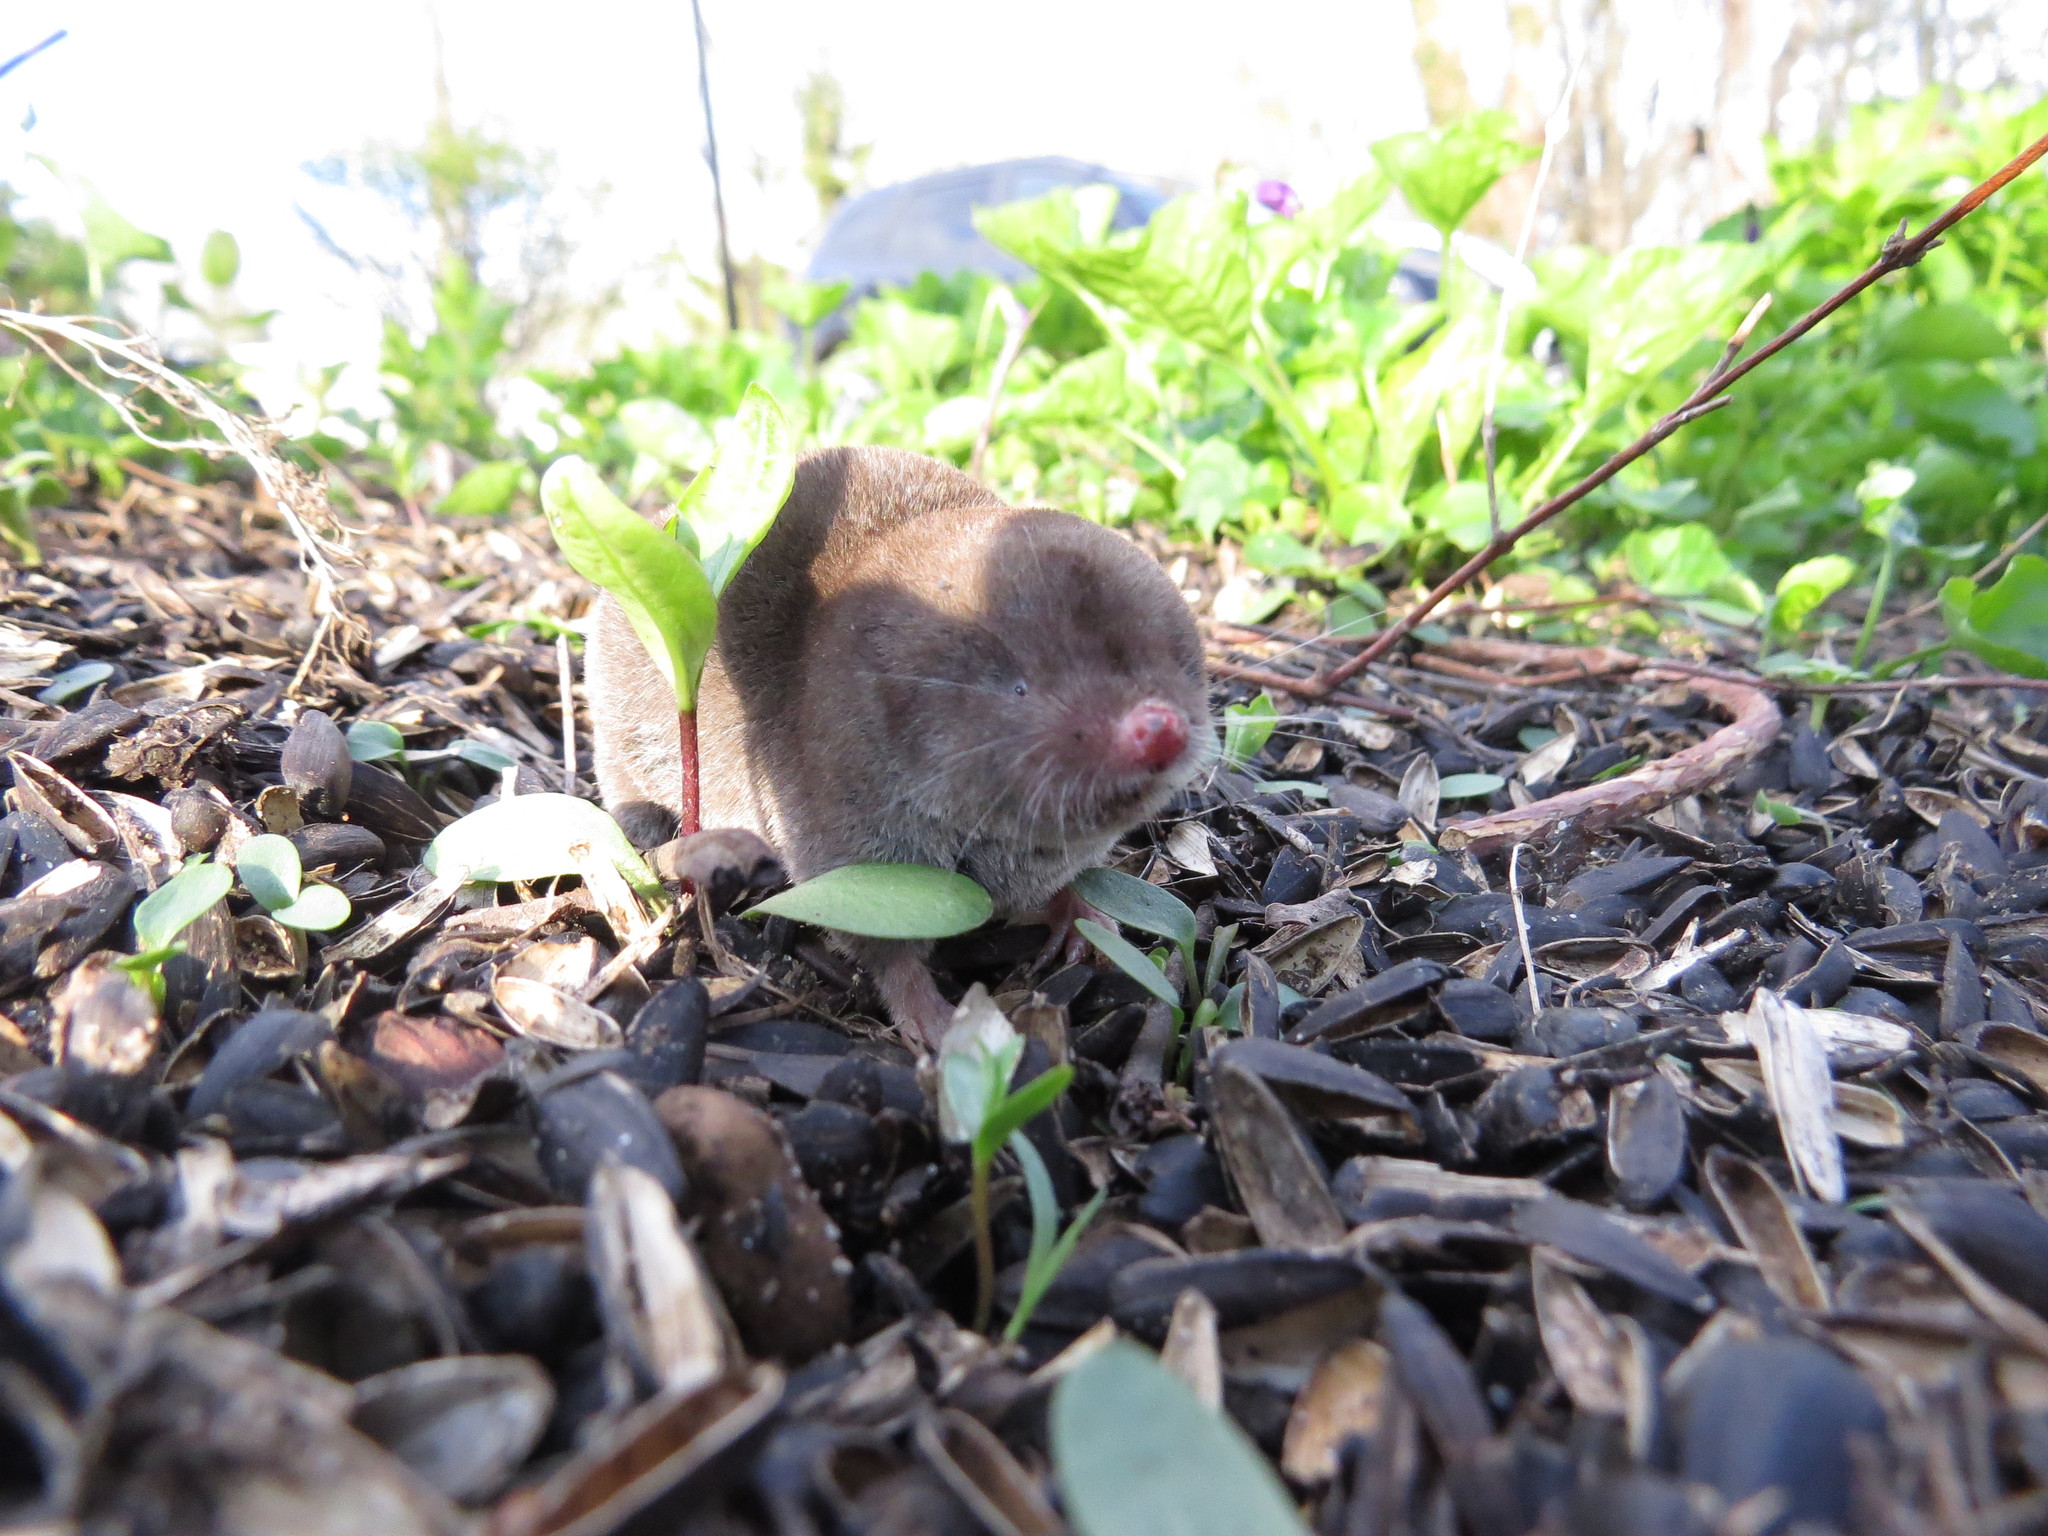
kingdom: Animalia
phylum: Chordata
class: Mammalia
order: Soricomorpha
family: Soricidae
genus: Blarina
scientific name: Blarina brevicauda
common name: Northern short-tailed shrew
